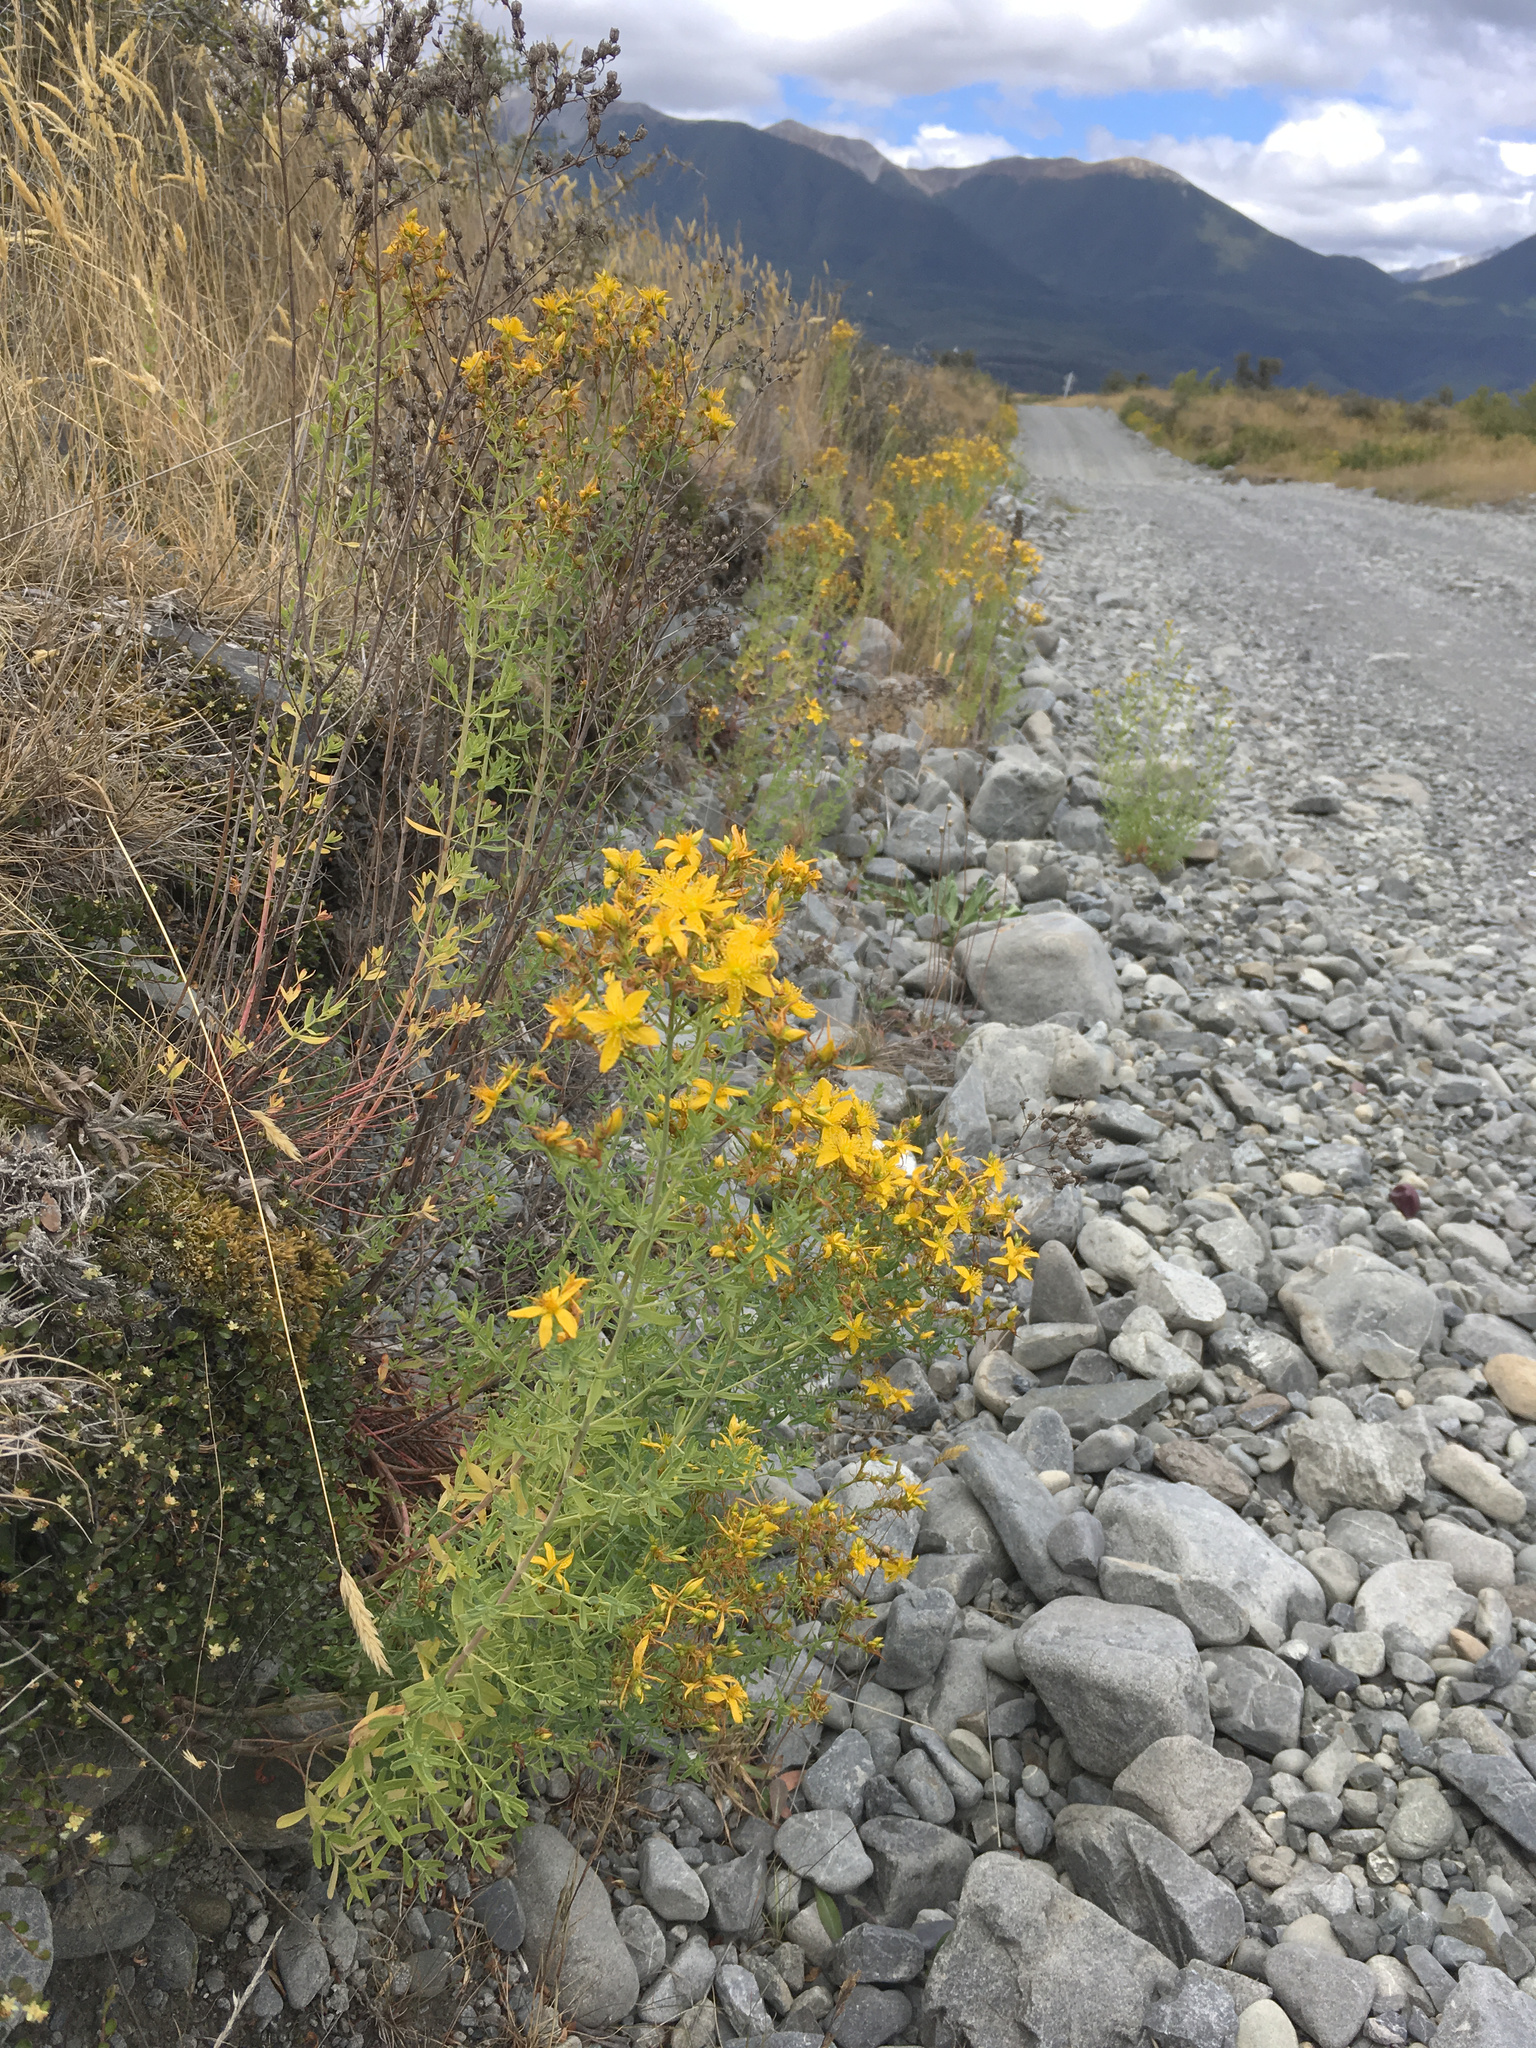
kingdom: Plantae
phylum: Tracheophyta
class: Magnoliopsida
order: Malpighiales
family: Hypericaceae
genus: Hypericum
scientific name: Hypericum perforatum
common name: Common st. johnswort
